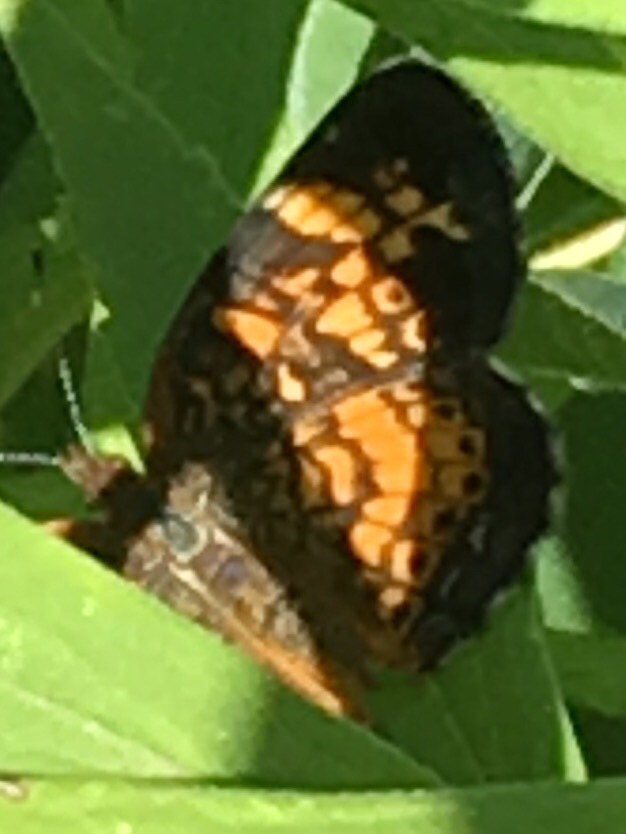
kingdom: Animalia
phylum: Arthropoda
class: Insecta
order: Lepidoptera
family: Nymphalidae
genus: Phyciodes
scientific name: Phyciodes tharos
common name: Pearl crescent
